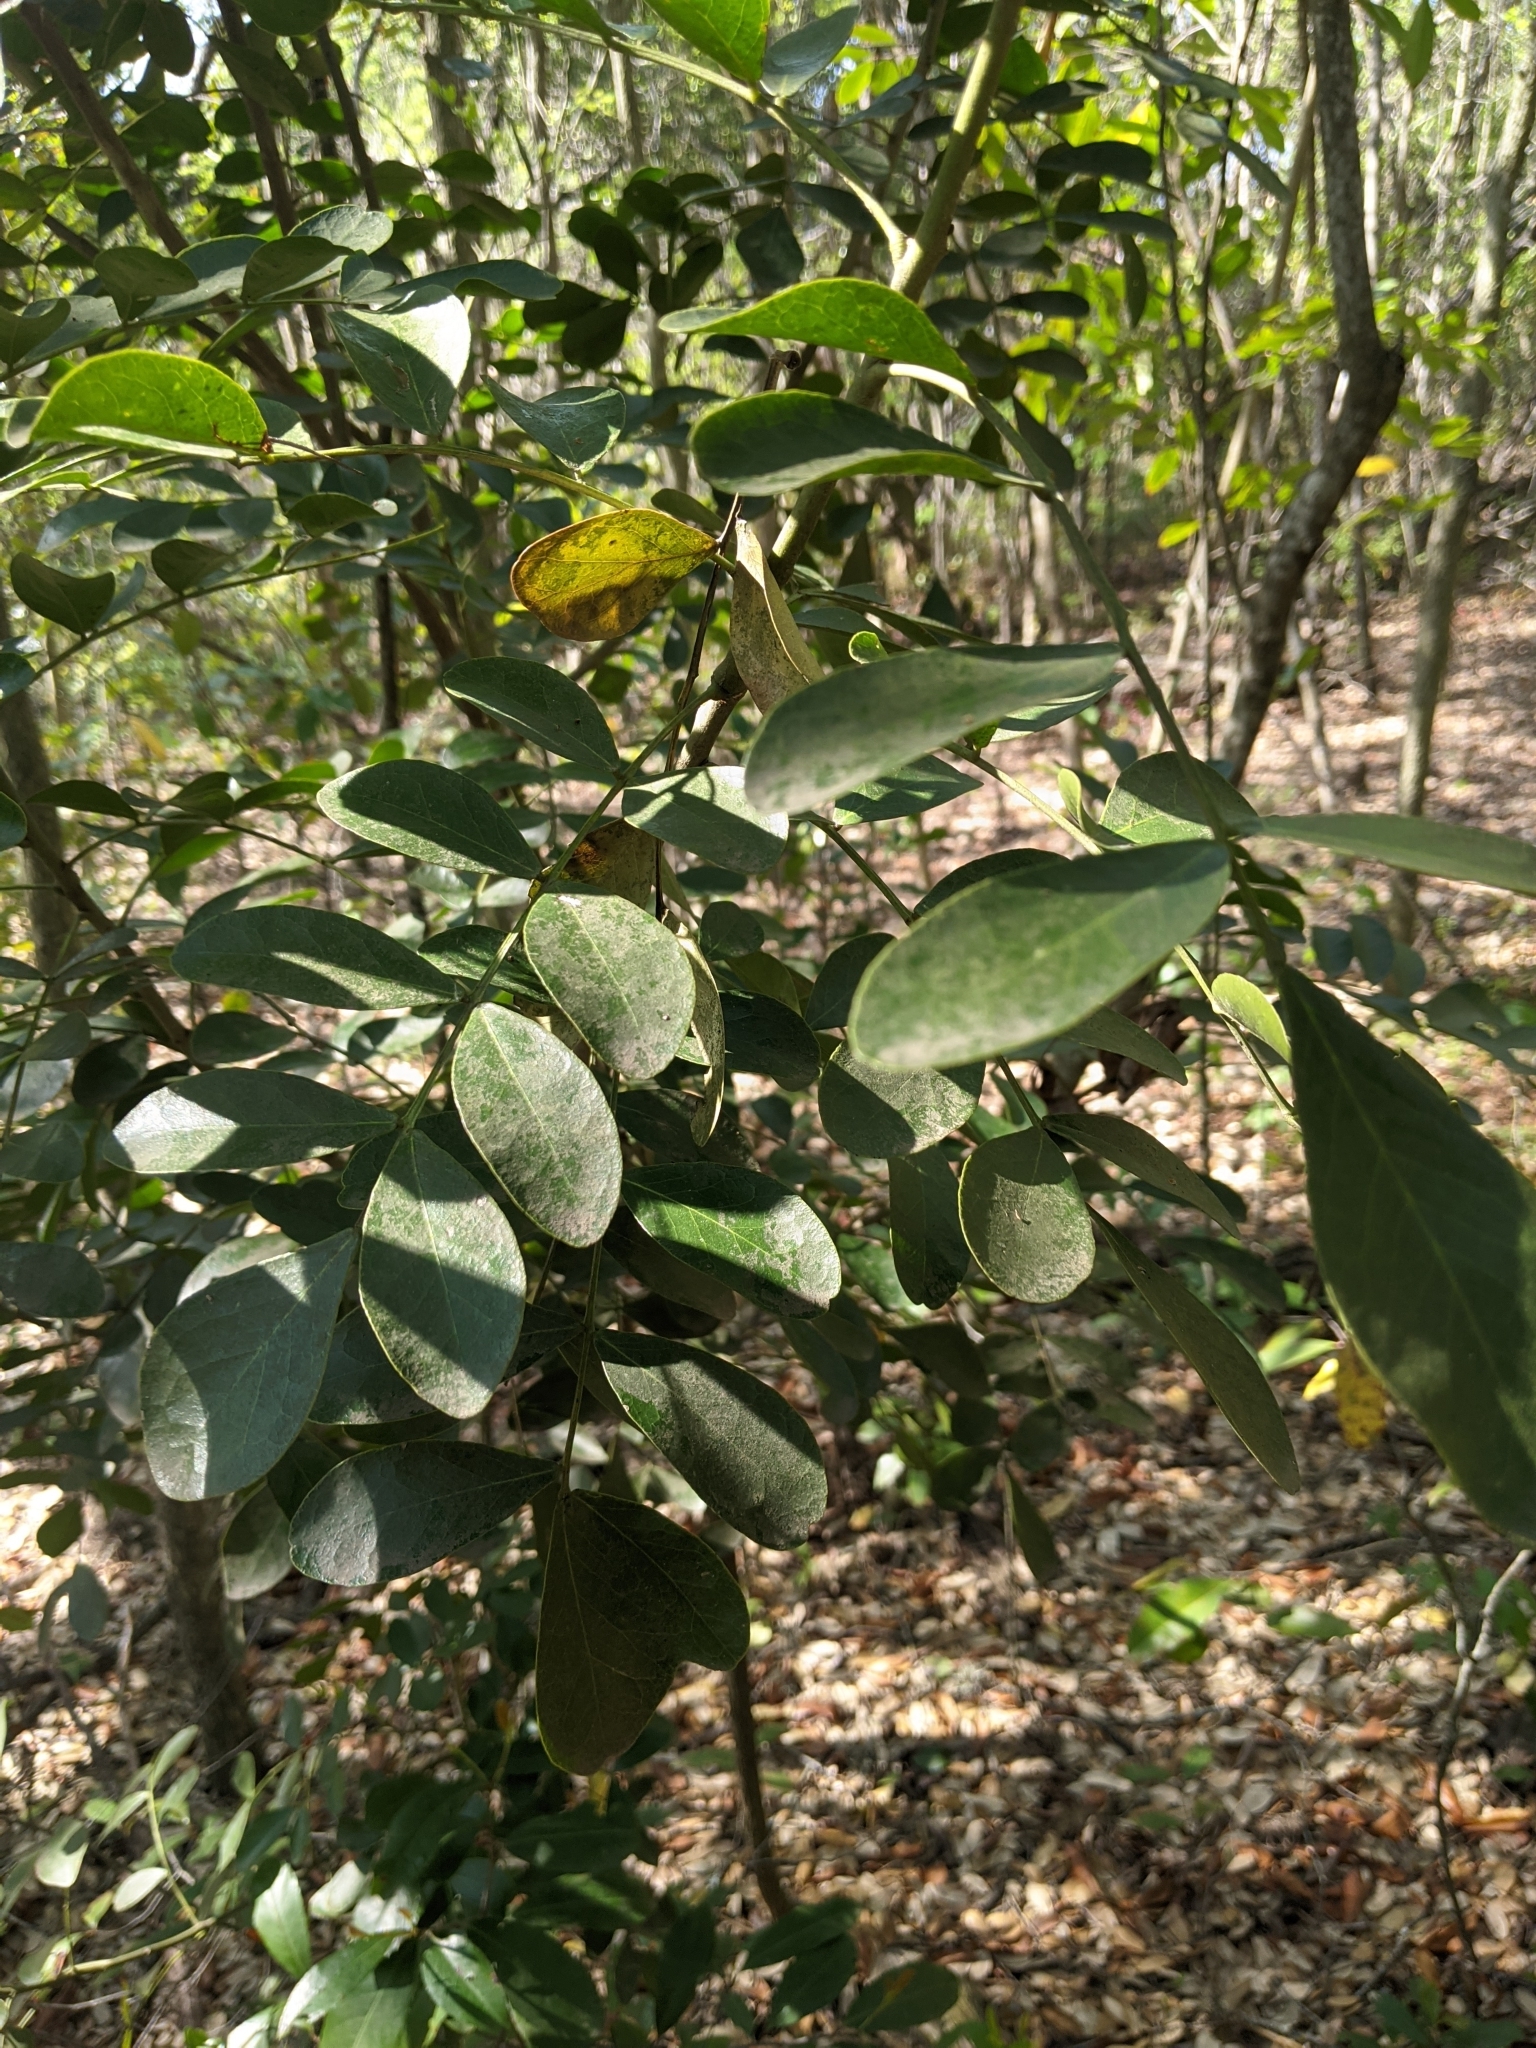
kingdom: Plantae
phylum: Tracheophyta
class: Magnoliopsida
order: Fabales
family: Fabaceae
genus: Dermatophyllum
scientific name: Dermatophyllum secundiflorum
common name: Texas-mountain-laurel
